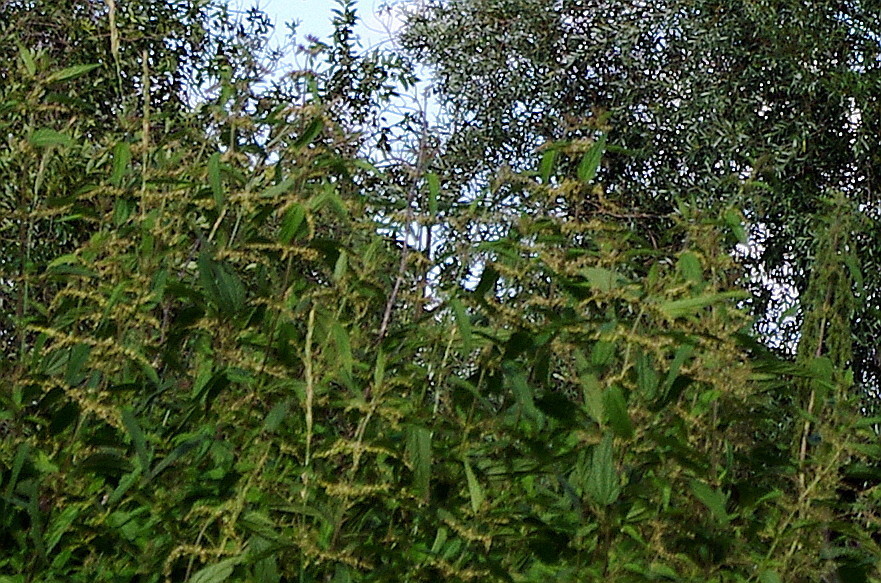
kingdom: Plantae
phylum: Tracheophyta
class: Magnoliopsida
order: Rosales
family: Urticaceae
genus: Urtica
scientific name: Urtica dioica
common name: Common nettle
